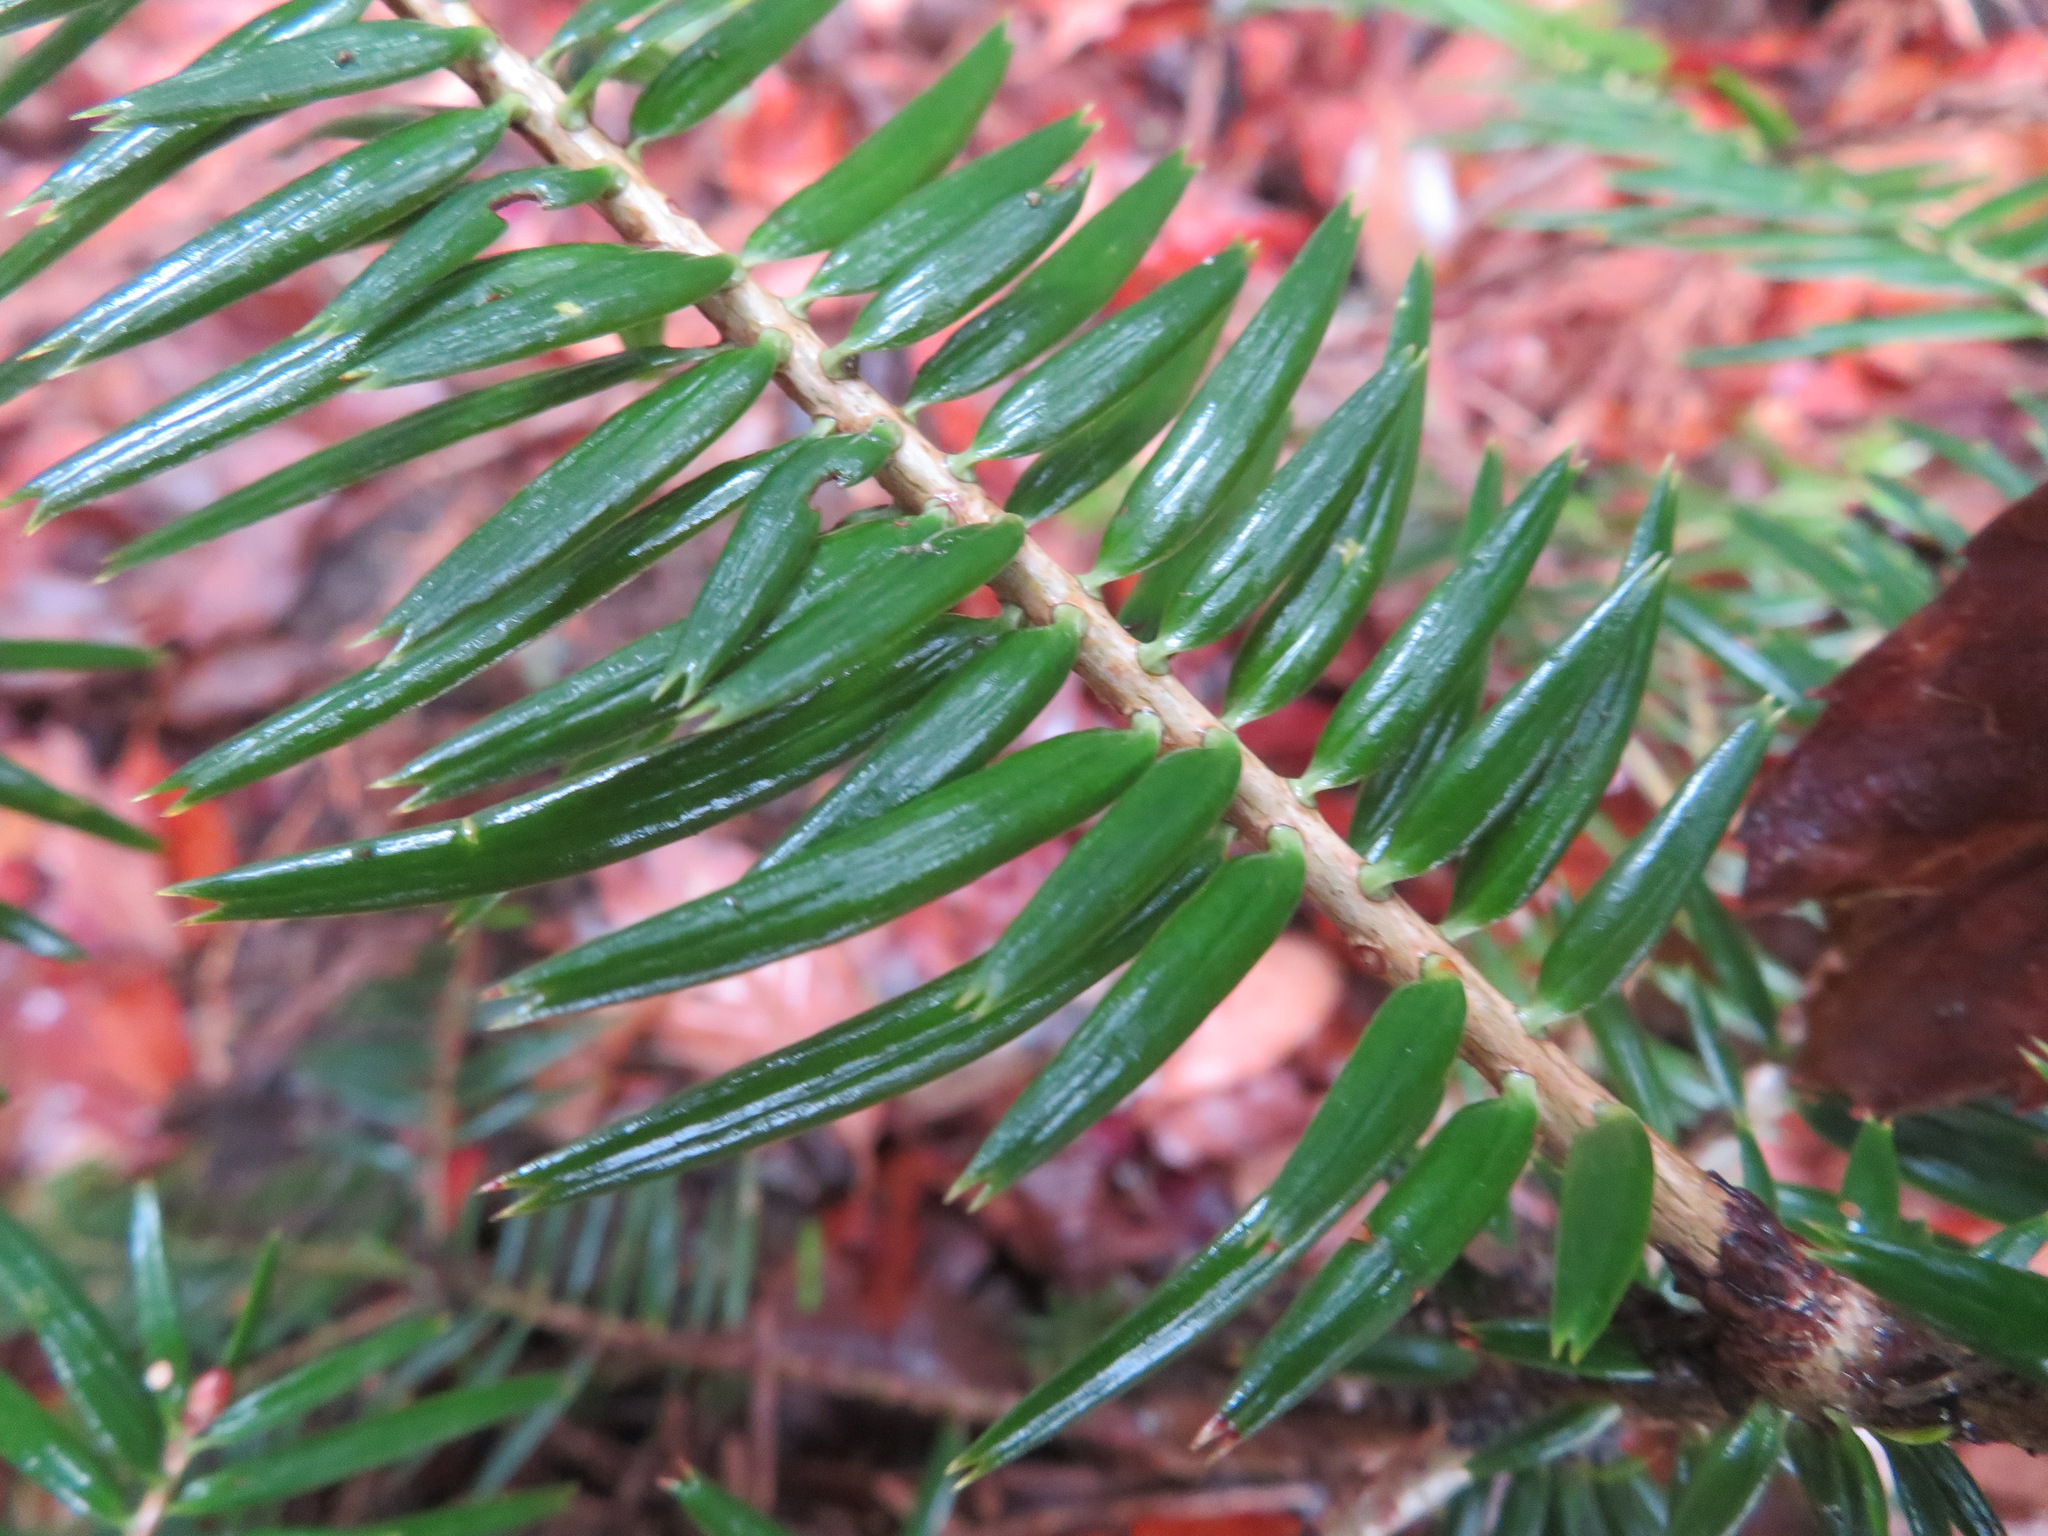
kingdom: Plantae
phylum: Tracheophyta
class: Pinopsida
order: Pinales
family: Pinaceae
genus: Abies
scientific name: Abies firma
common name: Momi fir
